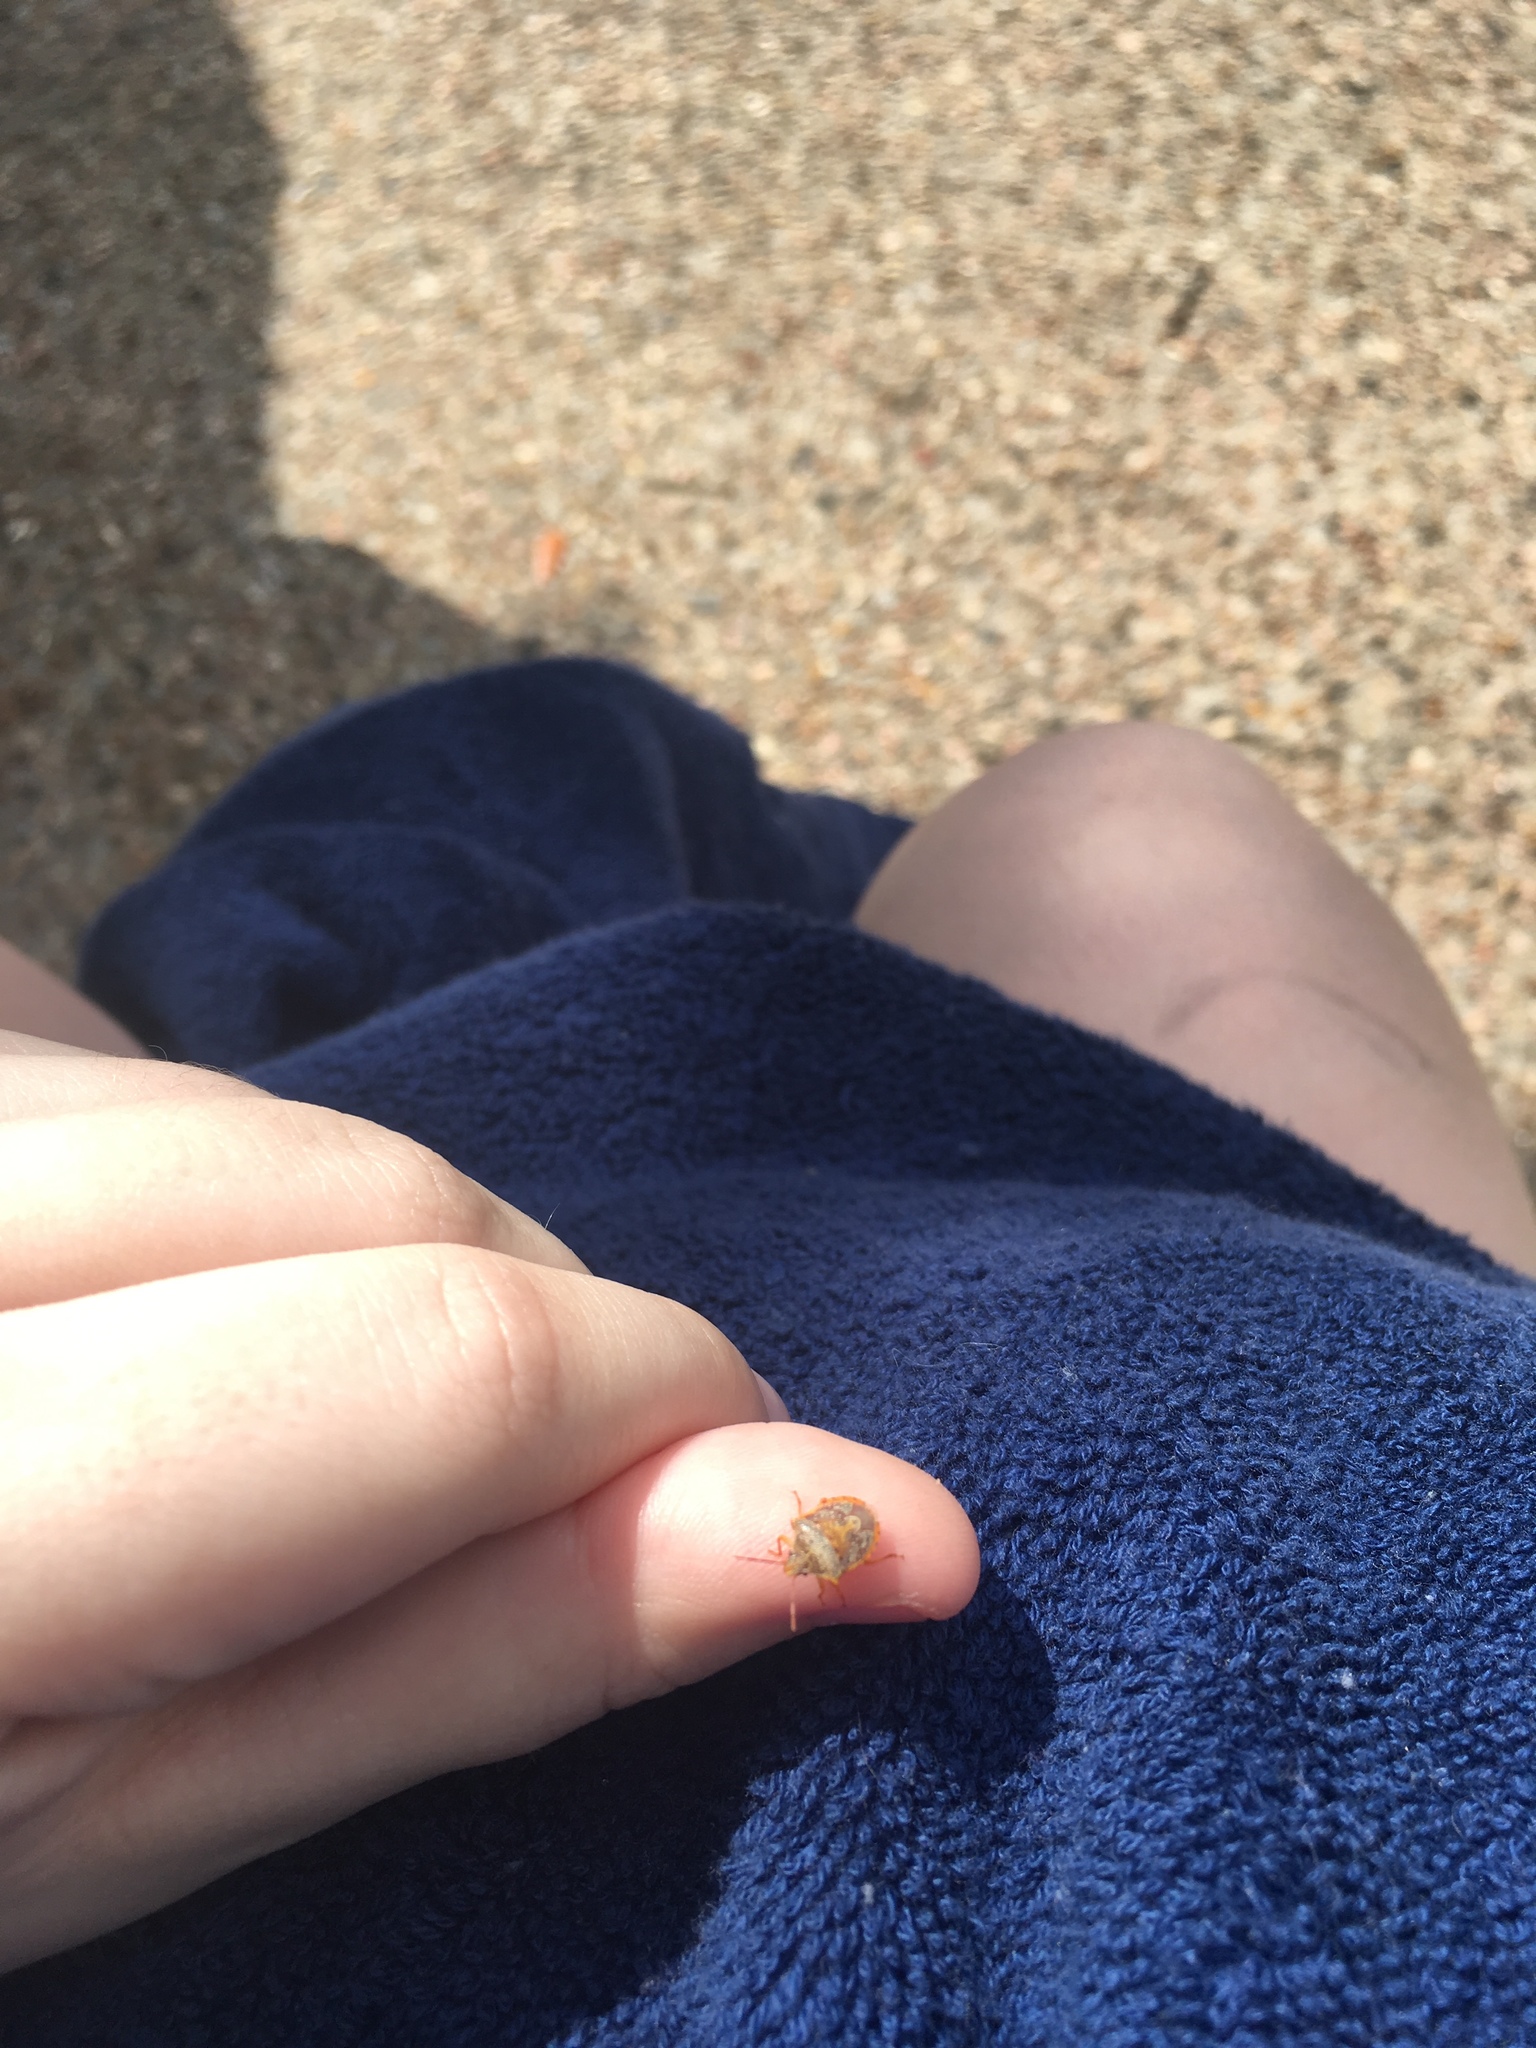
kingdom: Animalia
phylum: Arthropoda
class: Insecta
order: Hemiptera
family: Pentatomidae
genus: Dendrocoris
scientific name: Dendrocoris humeralis
